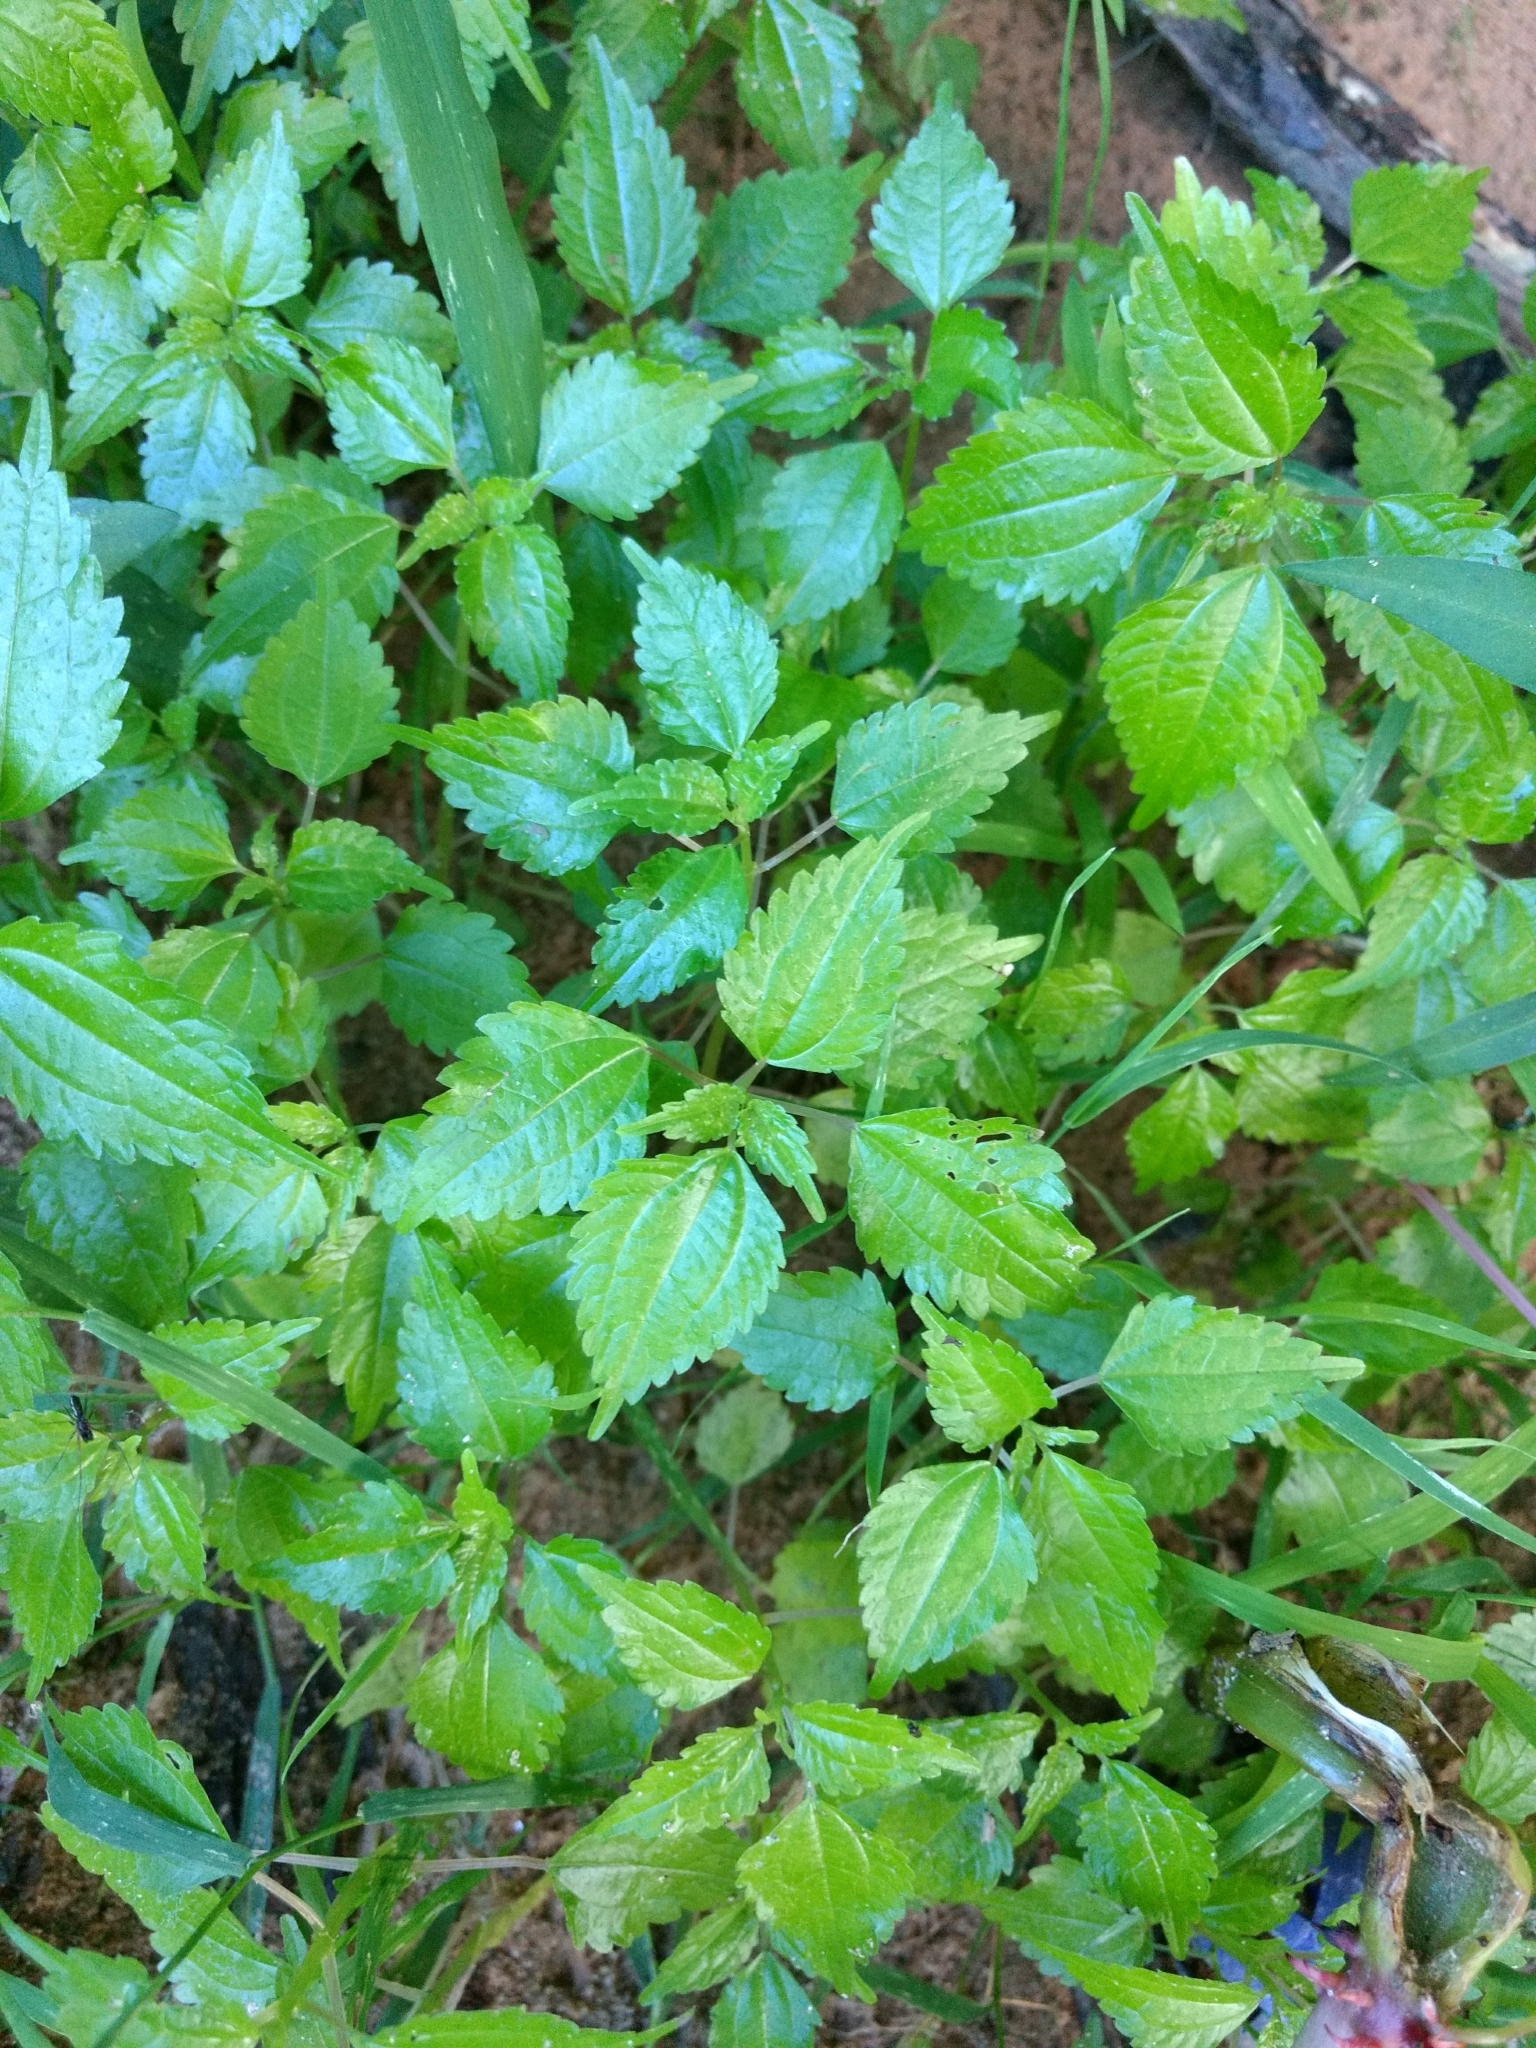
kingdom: Plantae
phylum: Tracheophyta
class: Magnoliopsida
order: Rosales
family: Urticaceae
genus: Pilea
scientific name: Pilea pumila
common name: Clearweed
